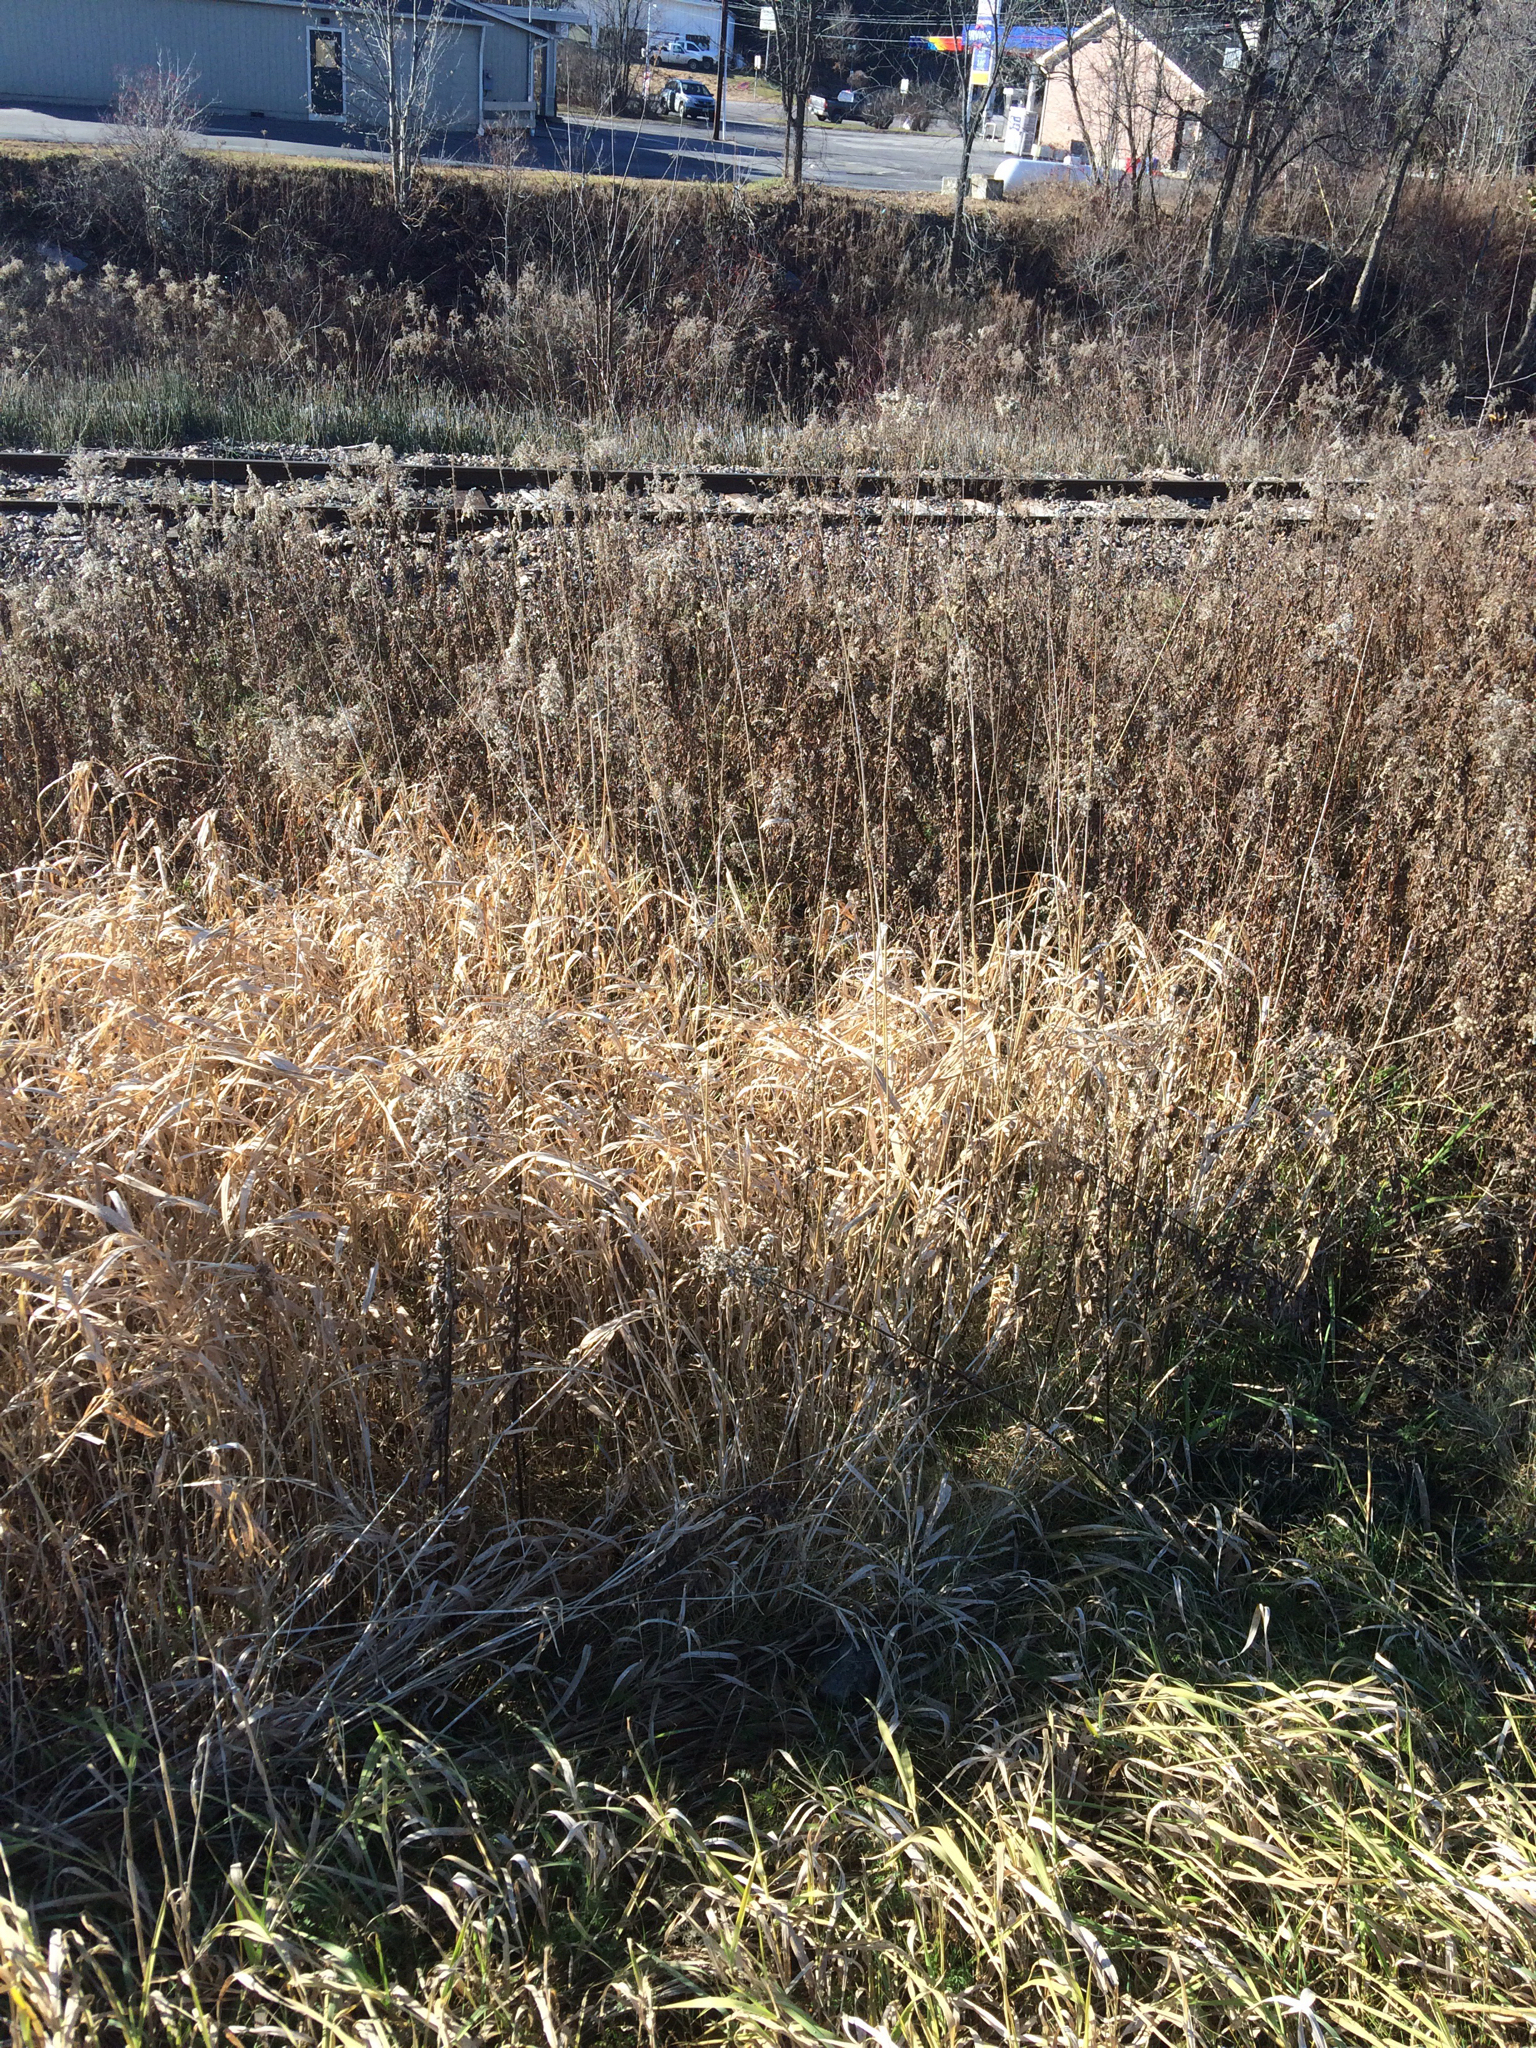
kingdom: Plantae
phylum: Tracheophyta
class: Liliopsida
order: Poales
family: Poaceae
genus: Phalaris
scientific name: Phalaris arundinacea
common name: Reed canary-grass
